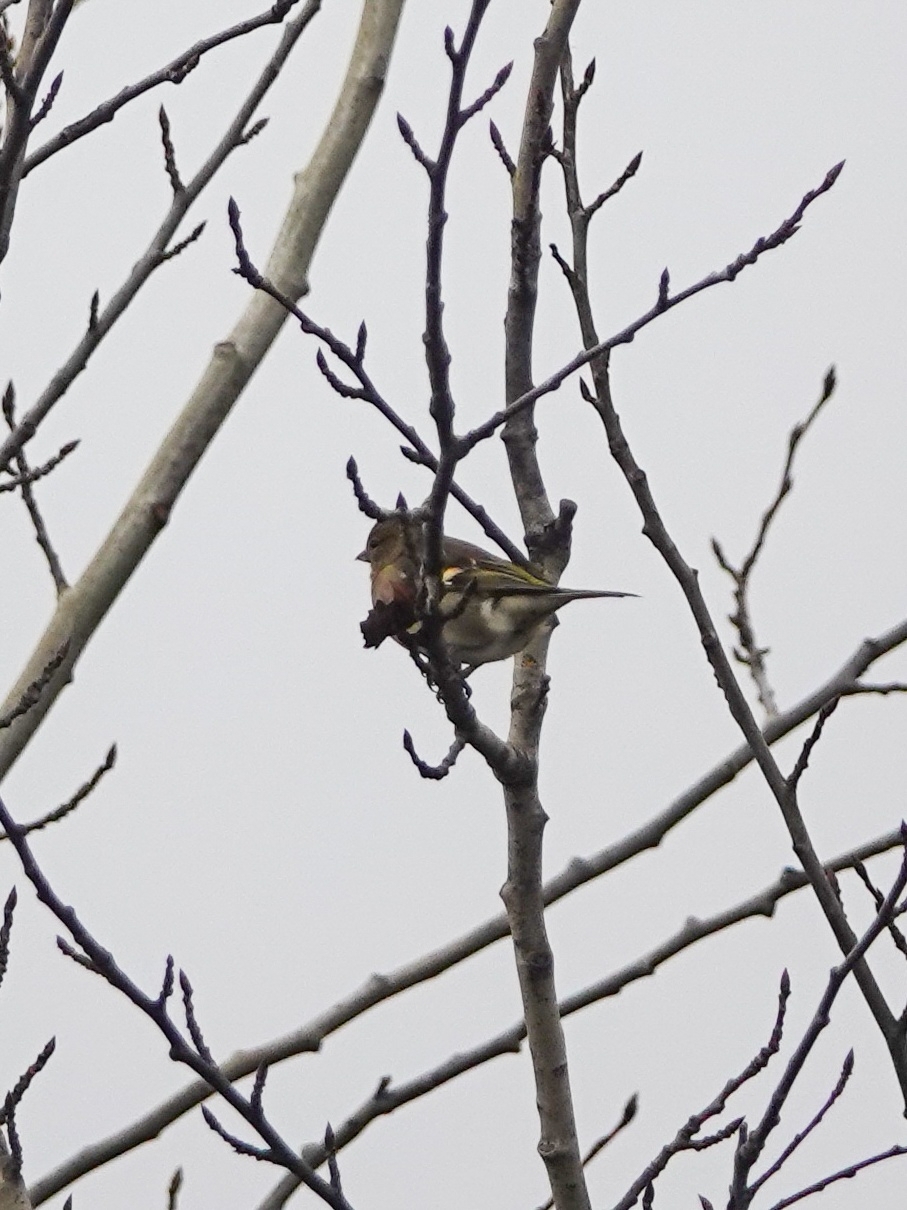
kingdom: Animalia
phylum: Chordata
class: Aves
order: Passeriformes
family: Fringillidae
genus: Fringilla
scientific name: Fringilla coelebs
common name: Common chaffinch
